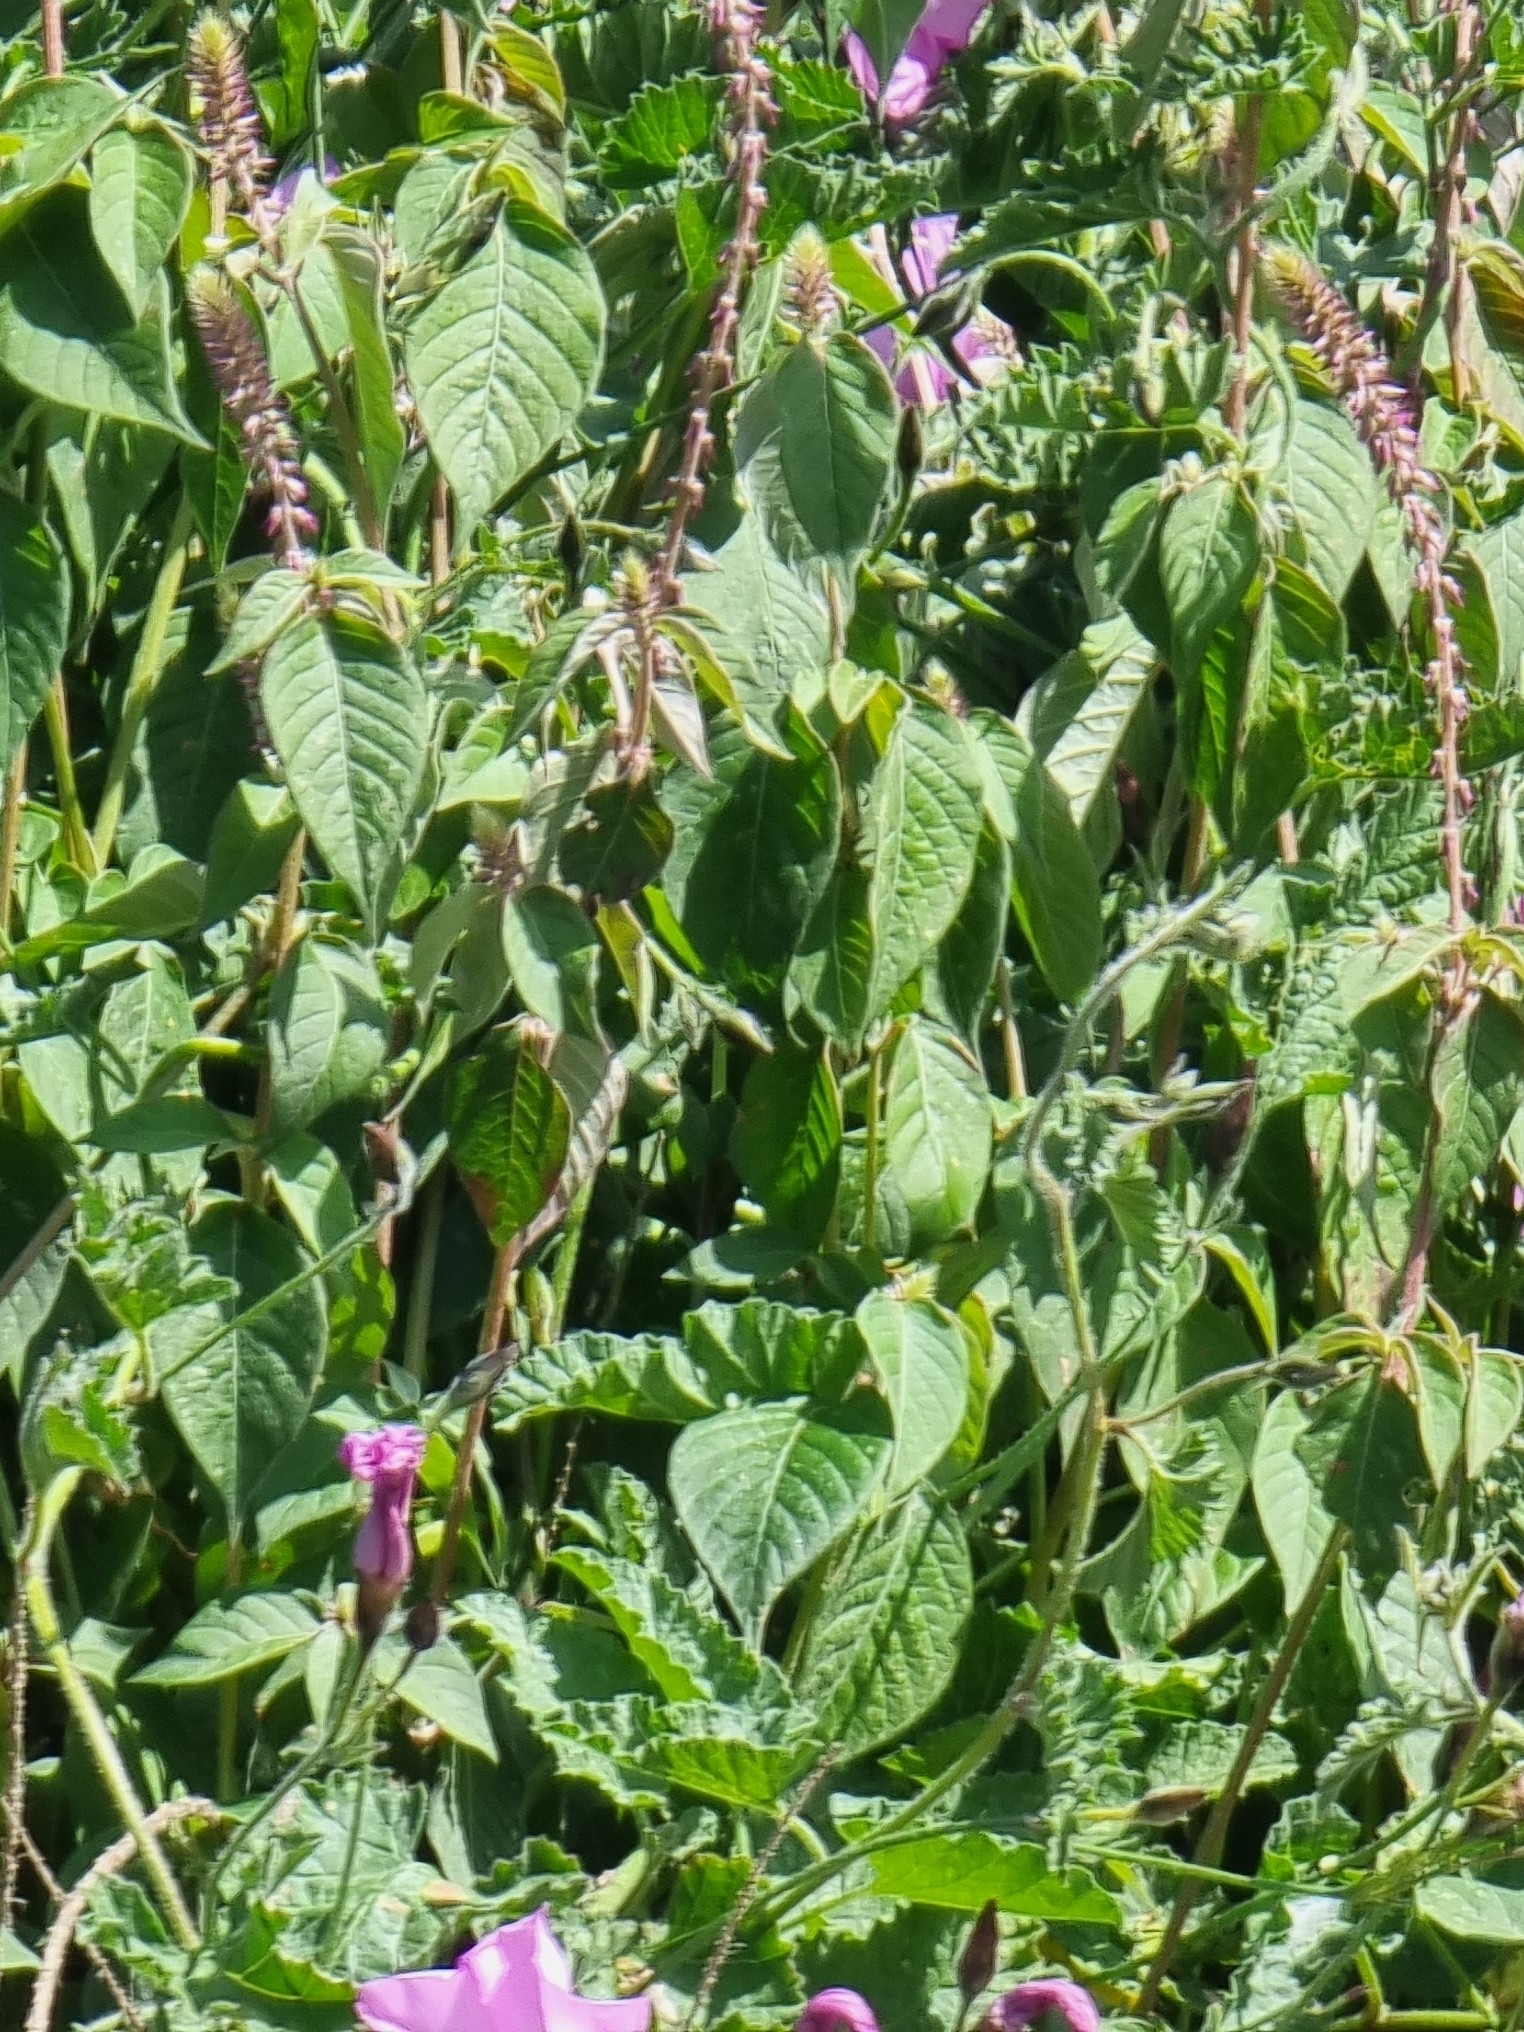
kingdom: Plantae
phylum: Tracheophyta
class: Magnoliopsida
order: Caryophyllales
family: Amaranthaceae
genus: Achyranthes
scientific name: Achyranthes aspera
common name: Devil's horsewhip
